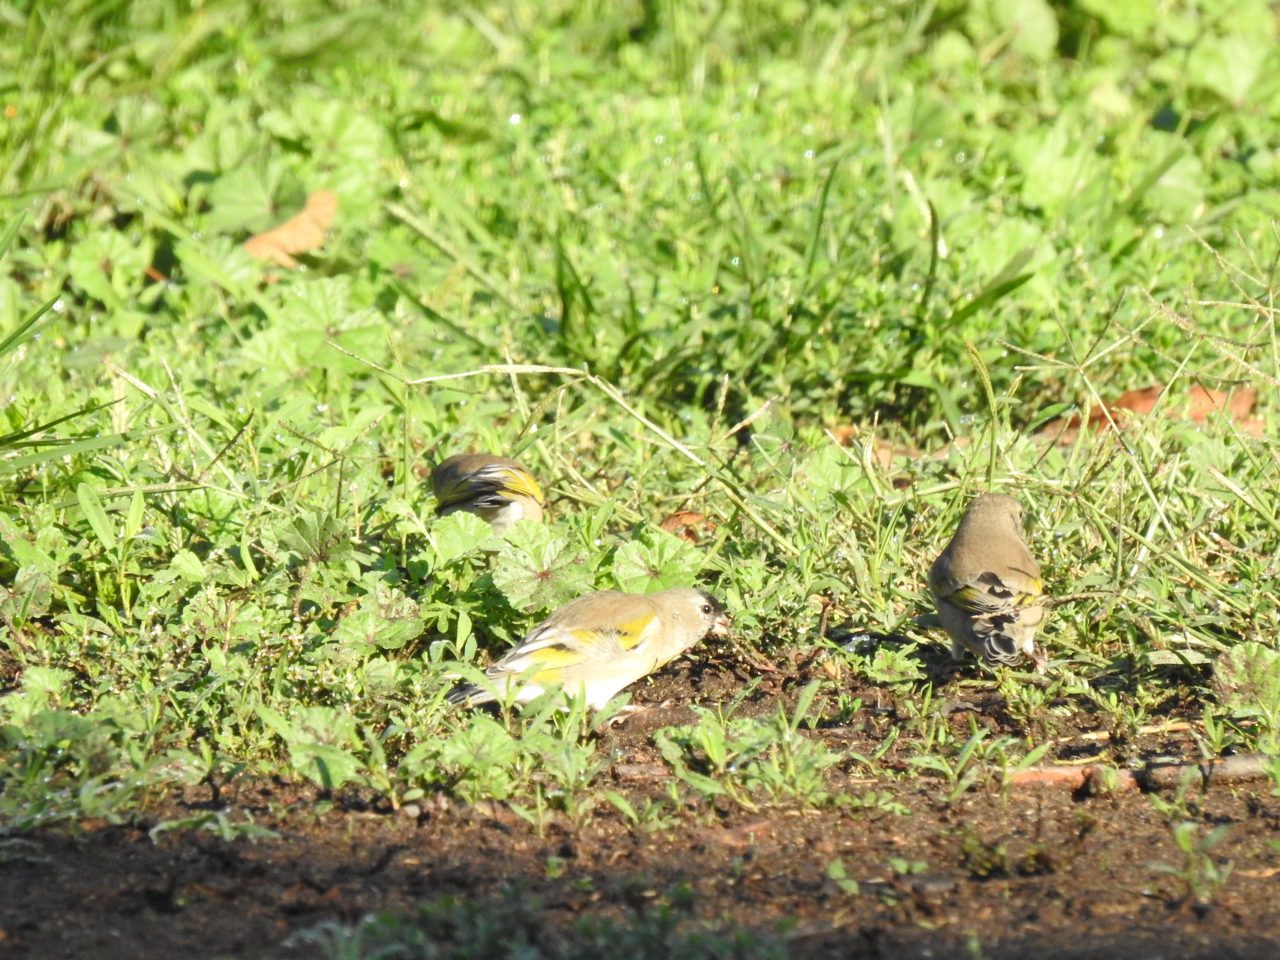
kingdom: Animalia
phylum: Chordata
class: Aves
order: Passeriformes
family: Fringillidae
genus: Spinus
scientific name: Spinus lawrencei
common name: Lawrence's goldfinch
